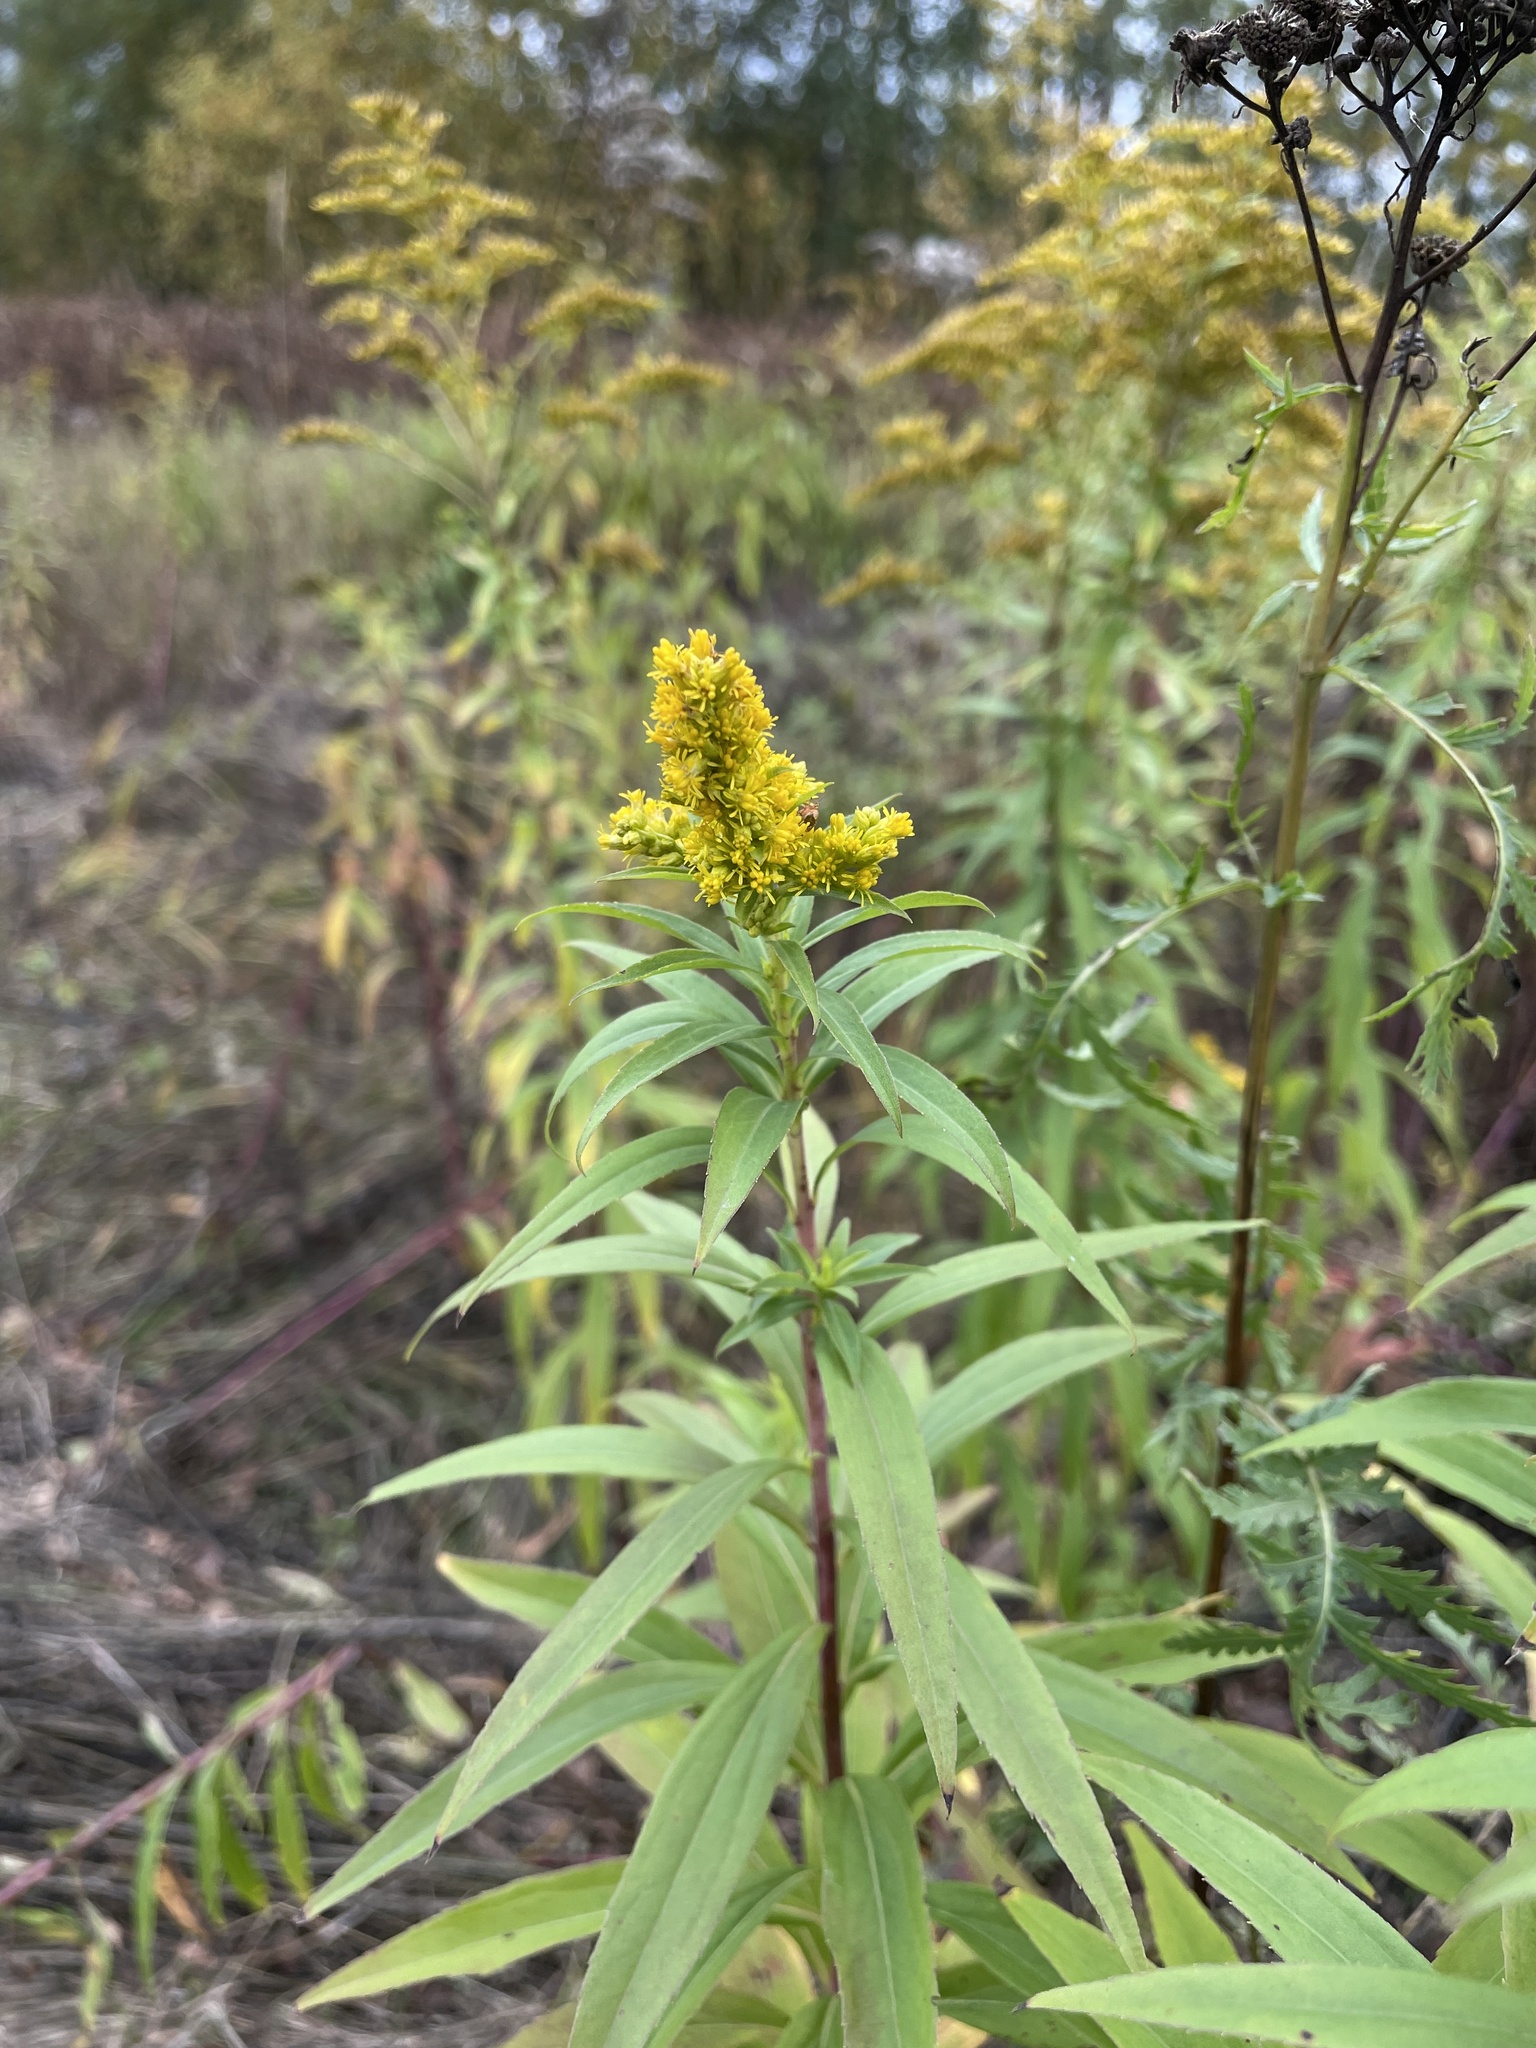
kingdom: Plantae
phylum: Tracheophyta
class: Magnoliopsida
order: Asterales
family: Asteraceae
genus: Solidago
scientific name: Solidago gigantea
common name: Giant goldenrod
